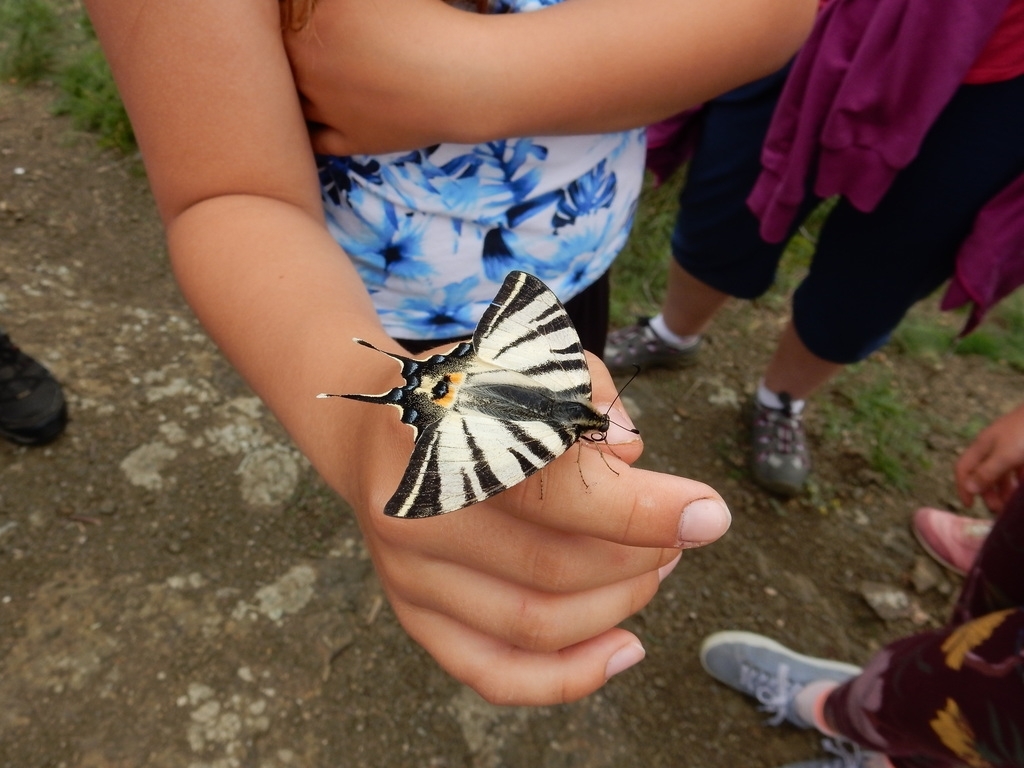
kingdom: Animalia
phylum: Arthropoda
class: Insecta
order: Lepidoptera
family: Papilionidae
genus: Iphiclides
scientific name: Iphiclides podalirius
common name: Scarce swallowtail
